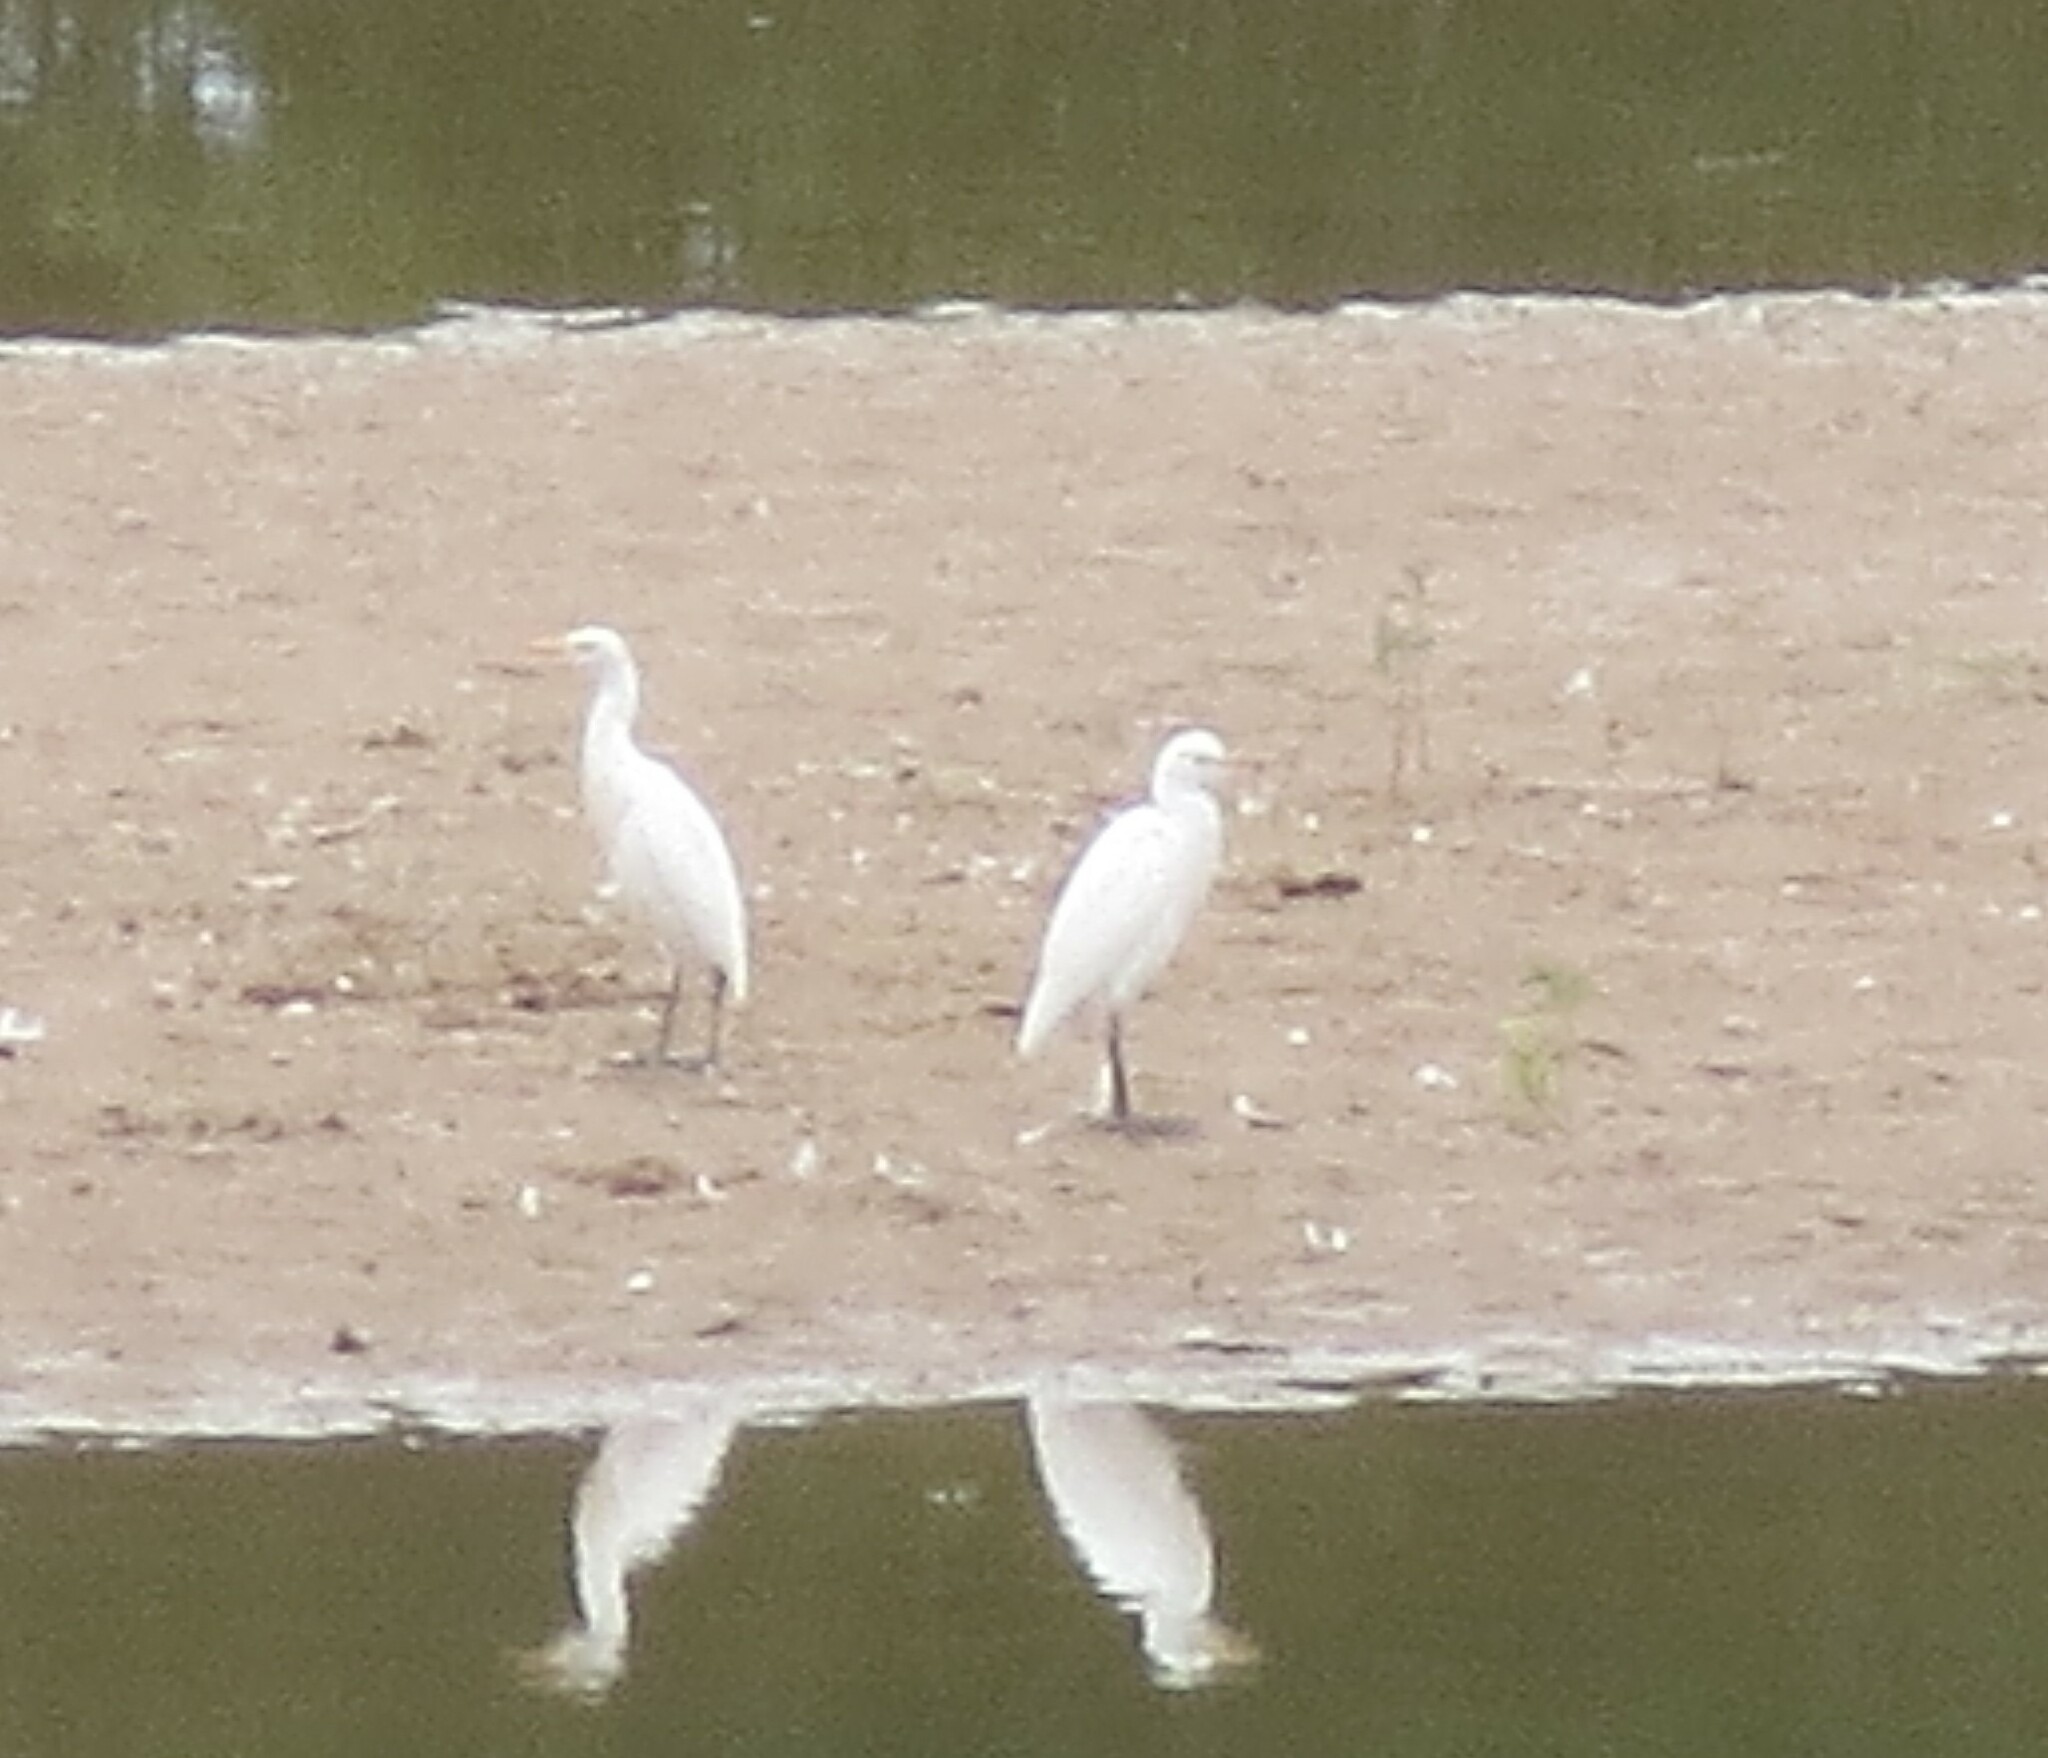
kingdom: Animalia
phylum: Chordata
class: Aves
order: Pelecaniformes
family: Ardeidae
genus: Bubulcus
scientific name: Bubulcus ibis
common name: Cattle egret
